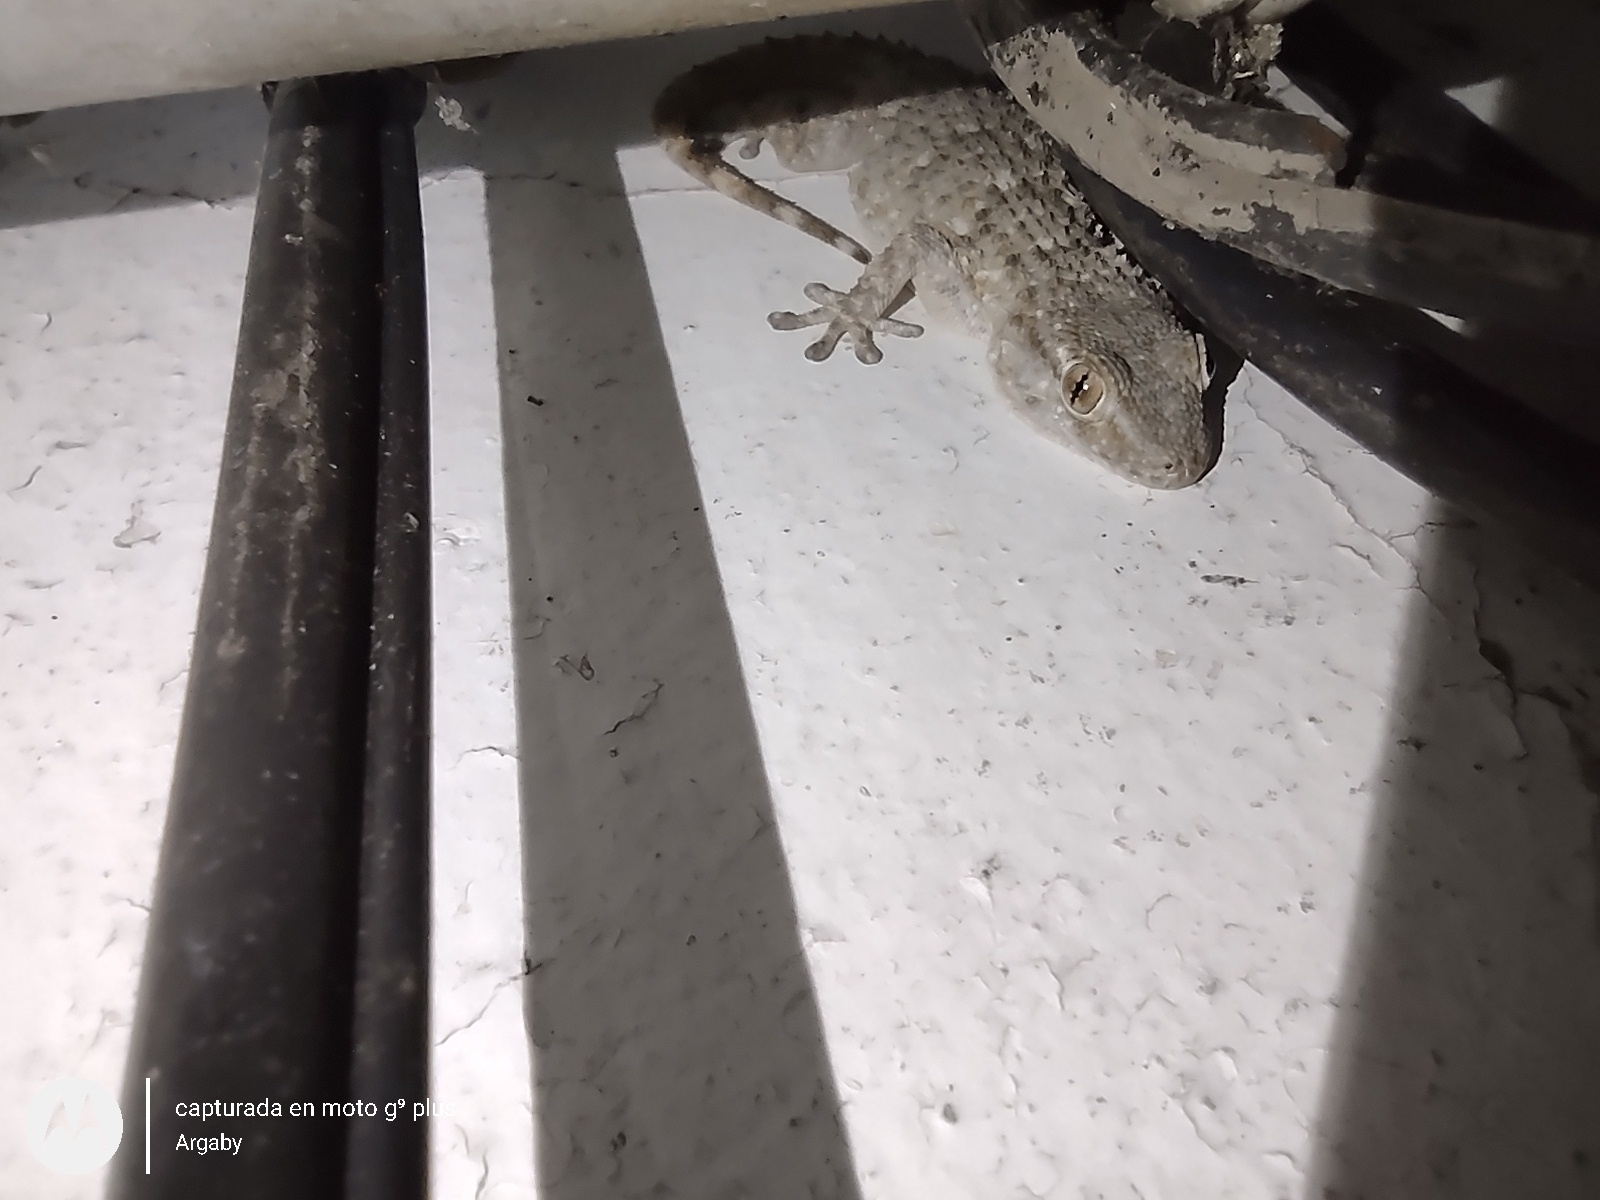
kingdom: Animalia
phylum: Chordata
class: Squamata
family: Phyllodactylidae
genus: Tarentola
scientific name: Tarentola mauritanica
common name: Moorish gecko
